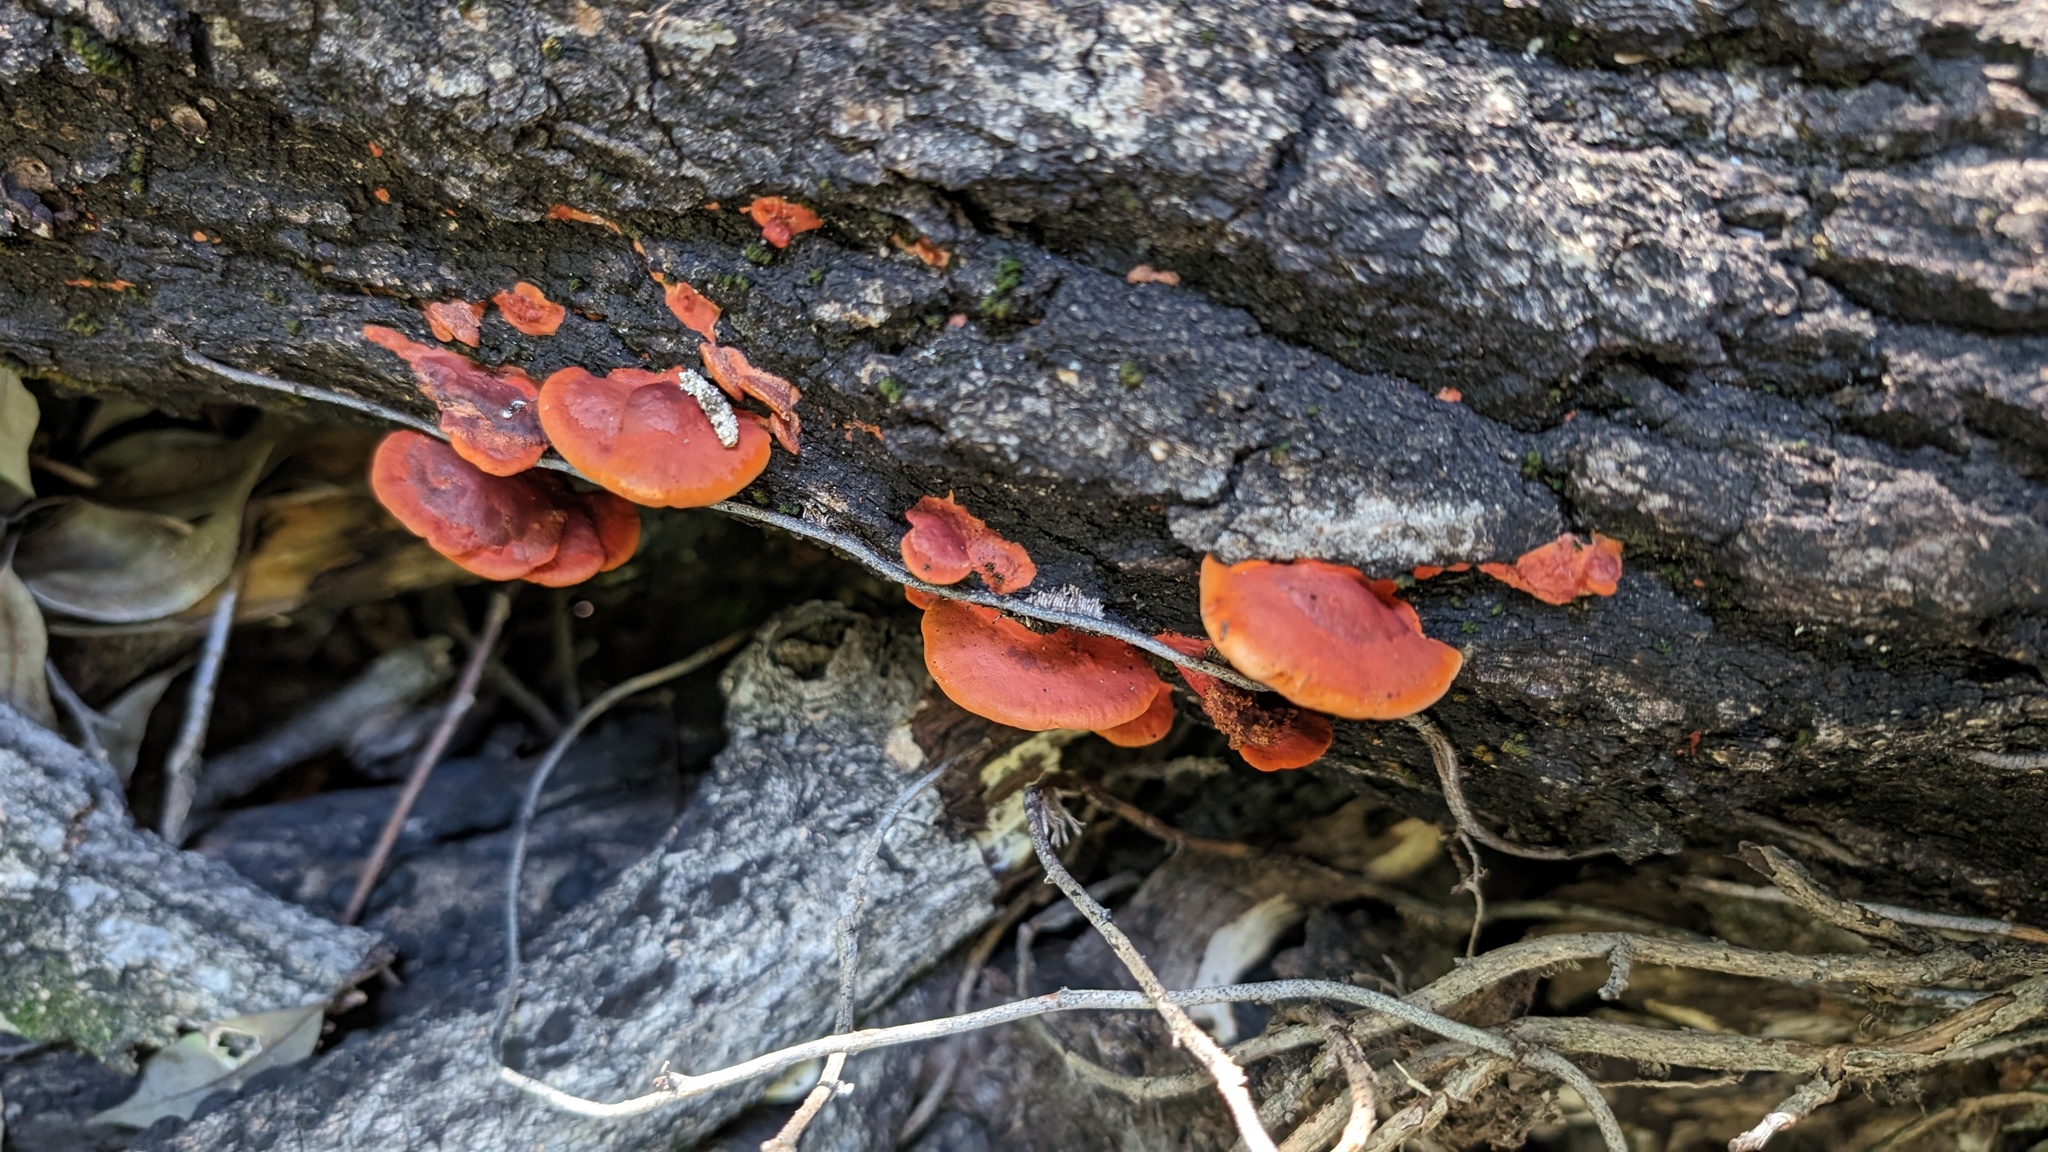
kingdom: Fungi
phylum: Basidiomycota
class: Agaricomycetes
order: Polyporales
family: Polyporaceae
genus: Trametes
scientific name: Trametes coccinea
